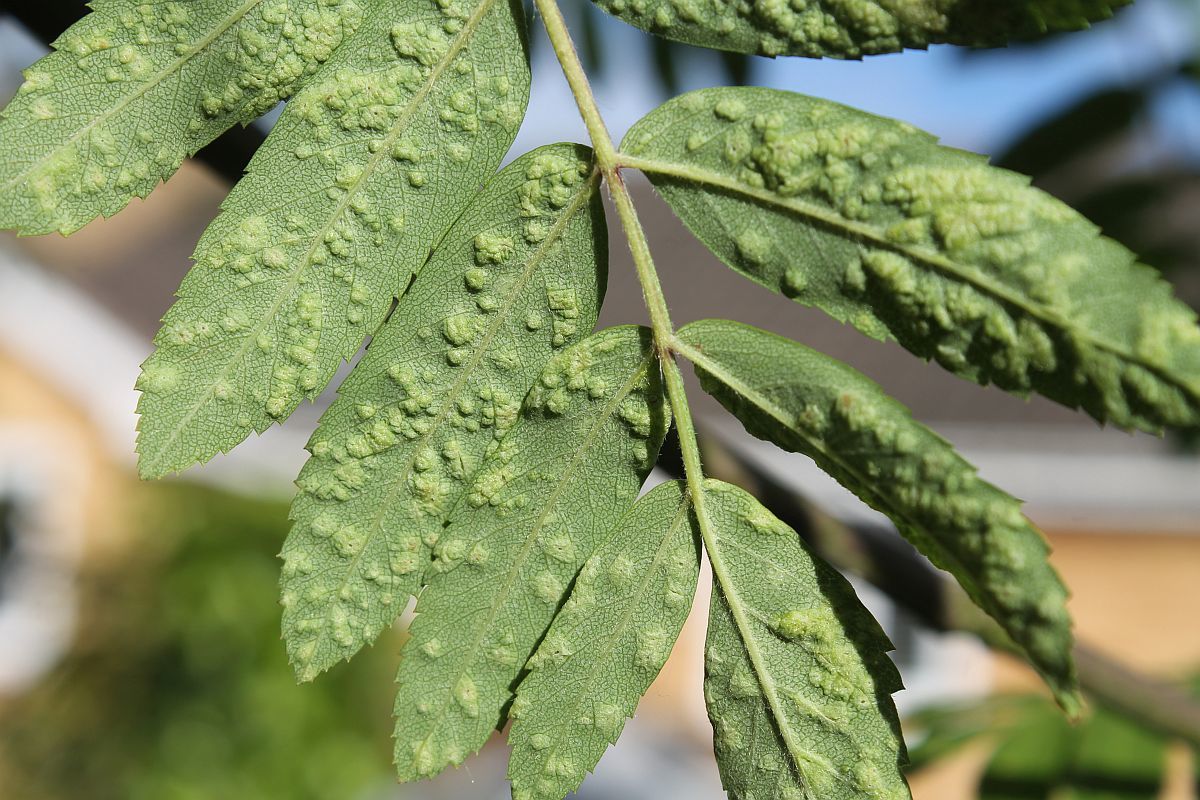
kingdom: Animalia
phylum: Arthropoda
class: Arachnida
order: Trombidiformes
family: Eriophyidae
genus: Eriophyes
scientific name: Eriophyes pyri
